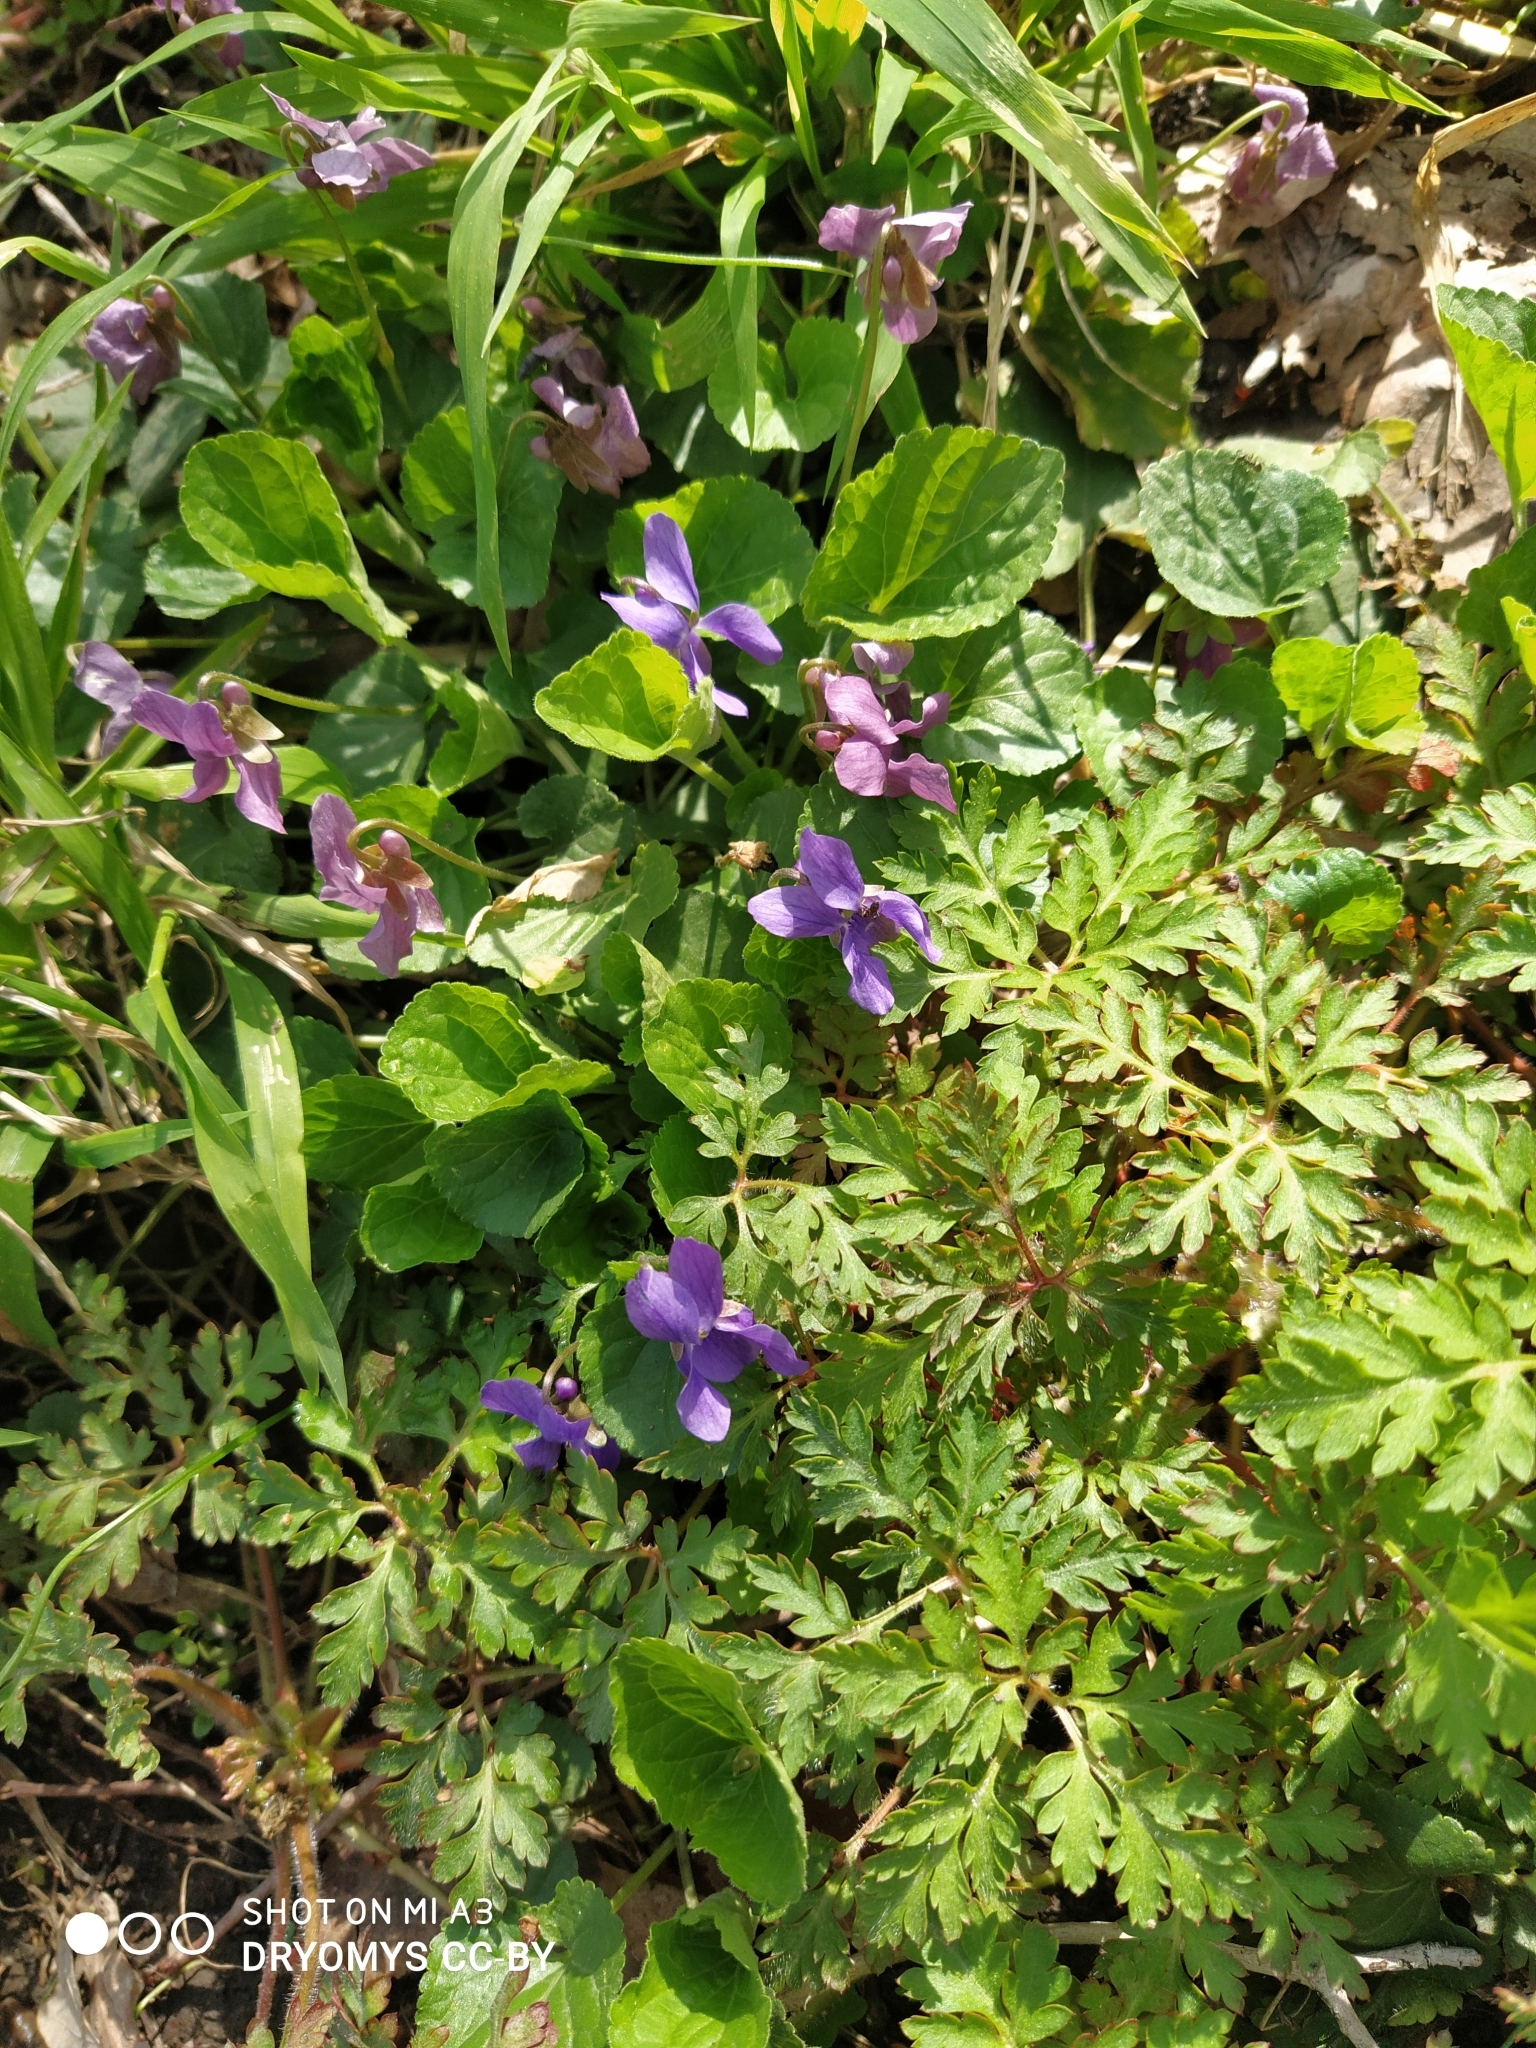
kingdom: Plantae
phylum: Tracheophyta
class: Magnoliopsida
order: Malpighiales
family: Violaceae
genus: Viola
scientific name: Viola odorata
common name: Sweet violet
